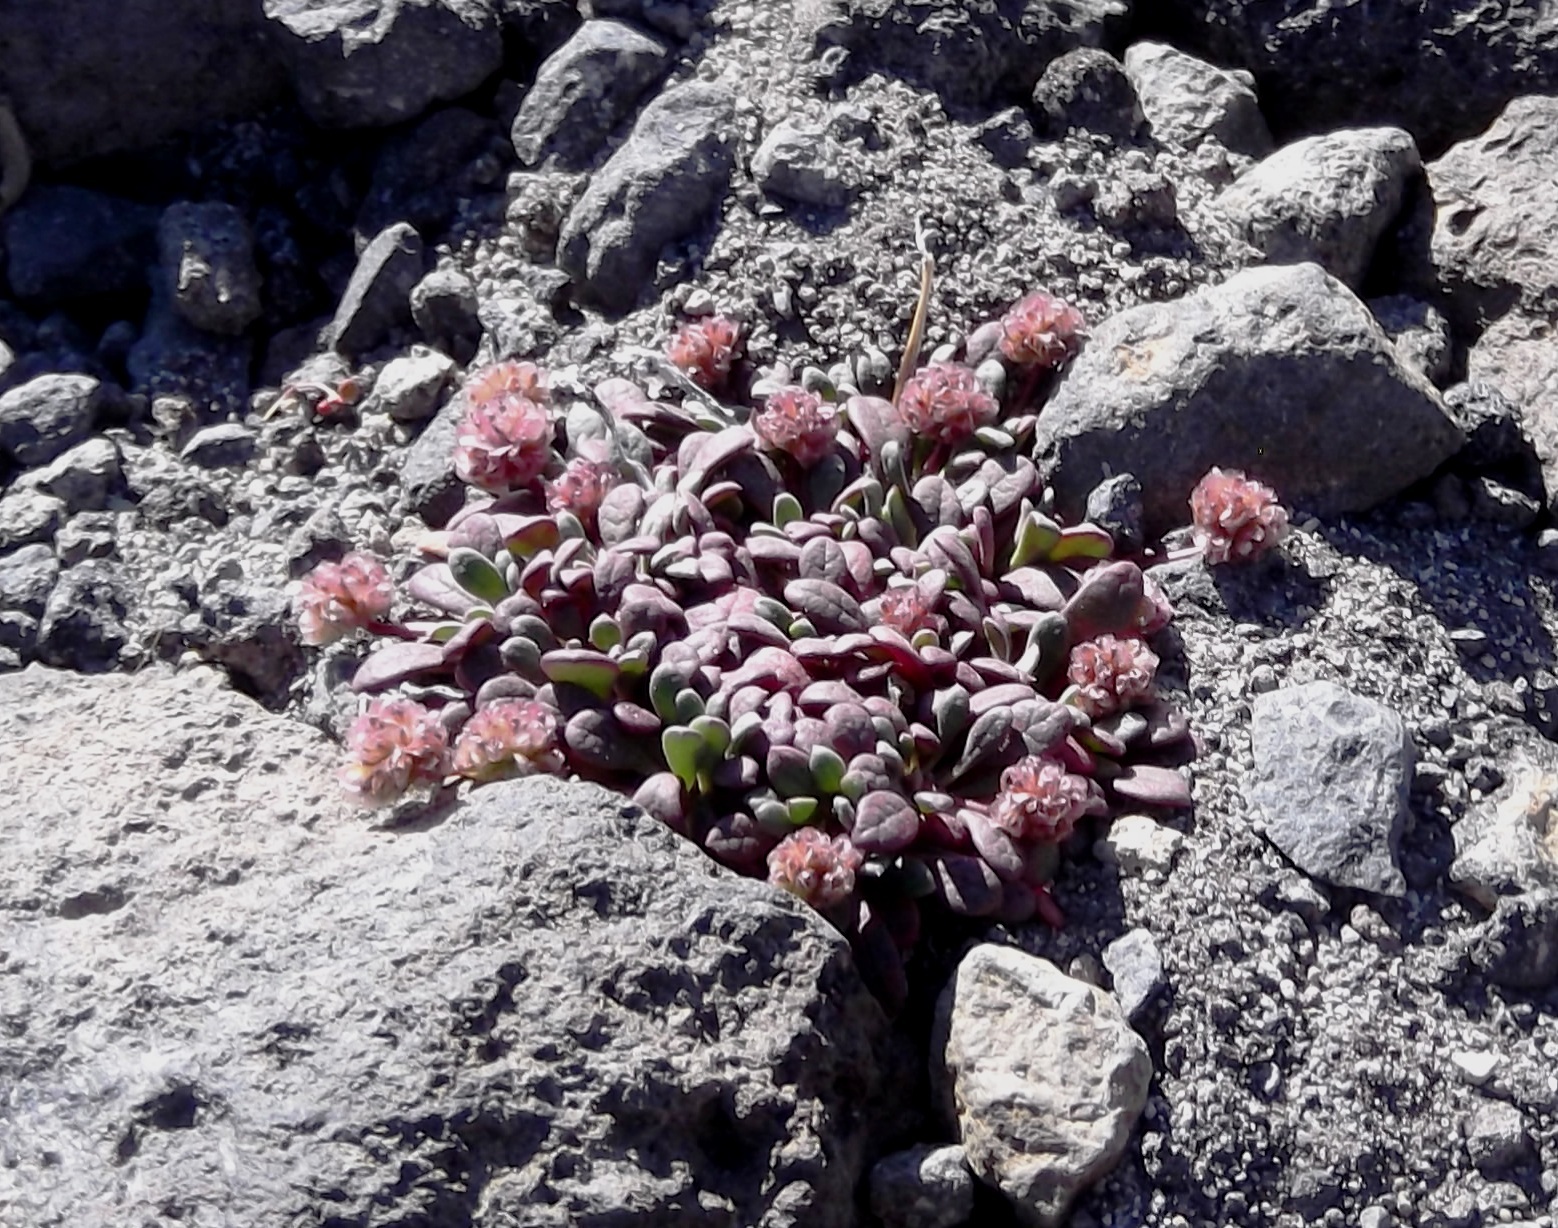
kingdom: Plantae
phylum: Tracheophyta
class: Magnoliopsida
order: Caryophyllales
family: Montiaceae
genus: Calyptridium
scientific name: Calyptridium umbellatum
